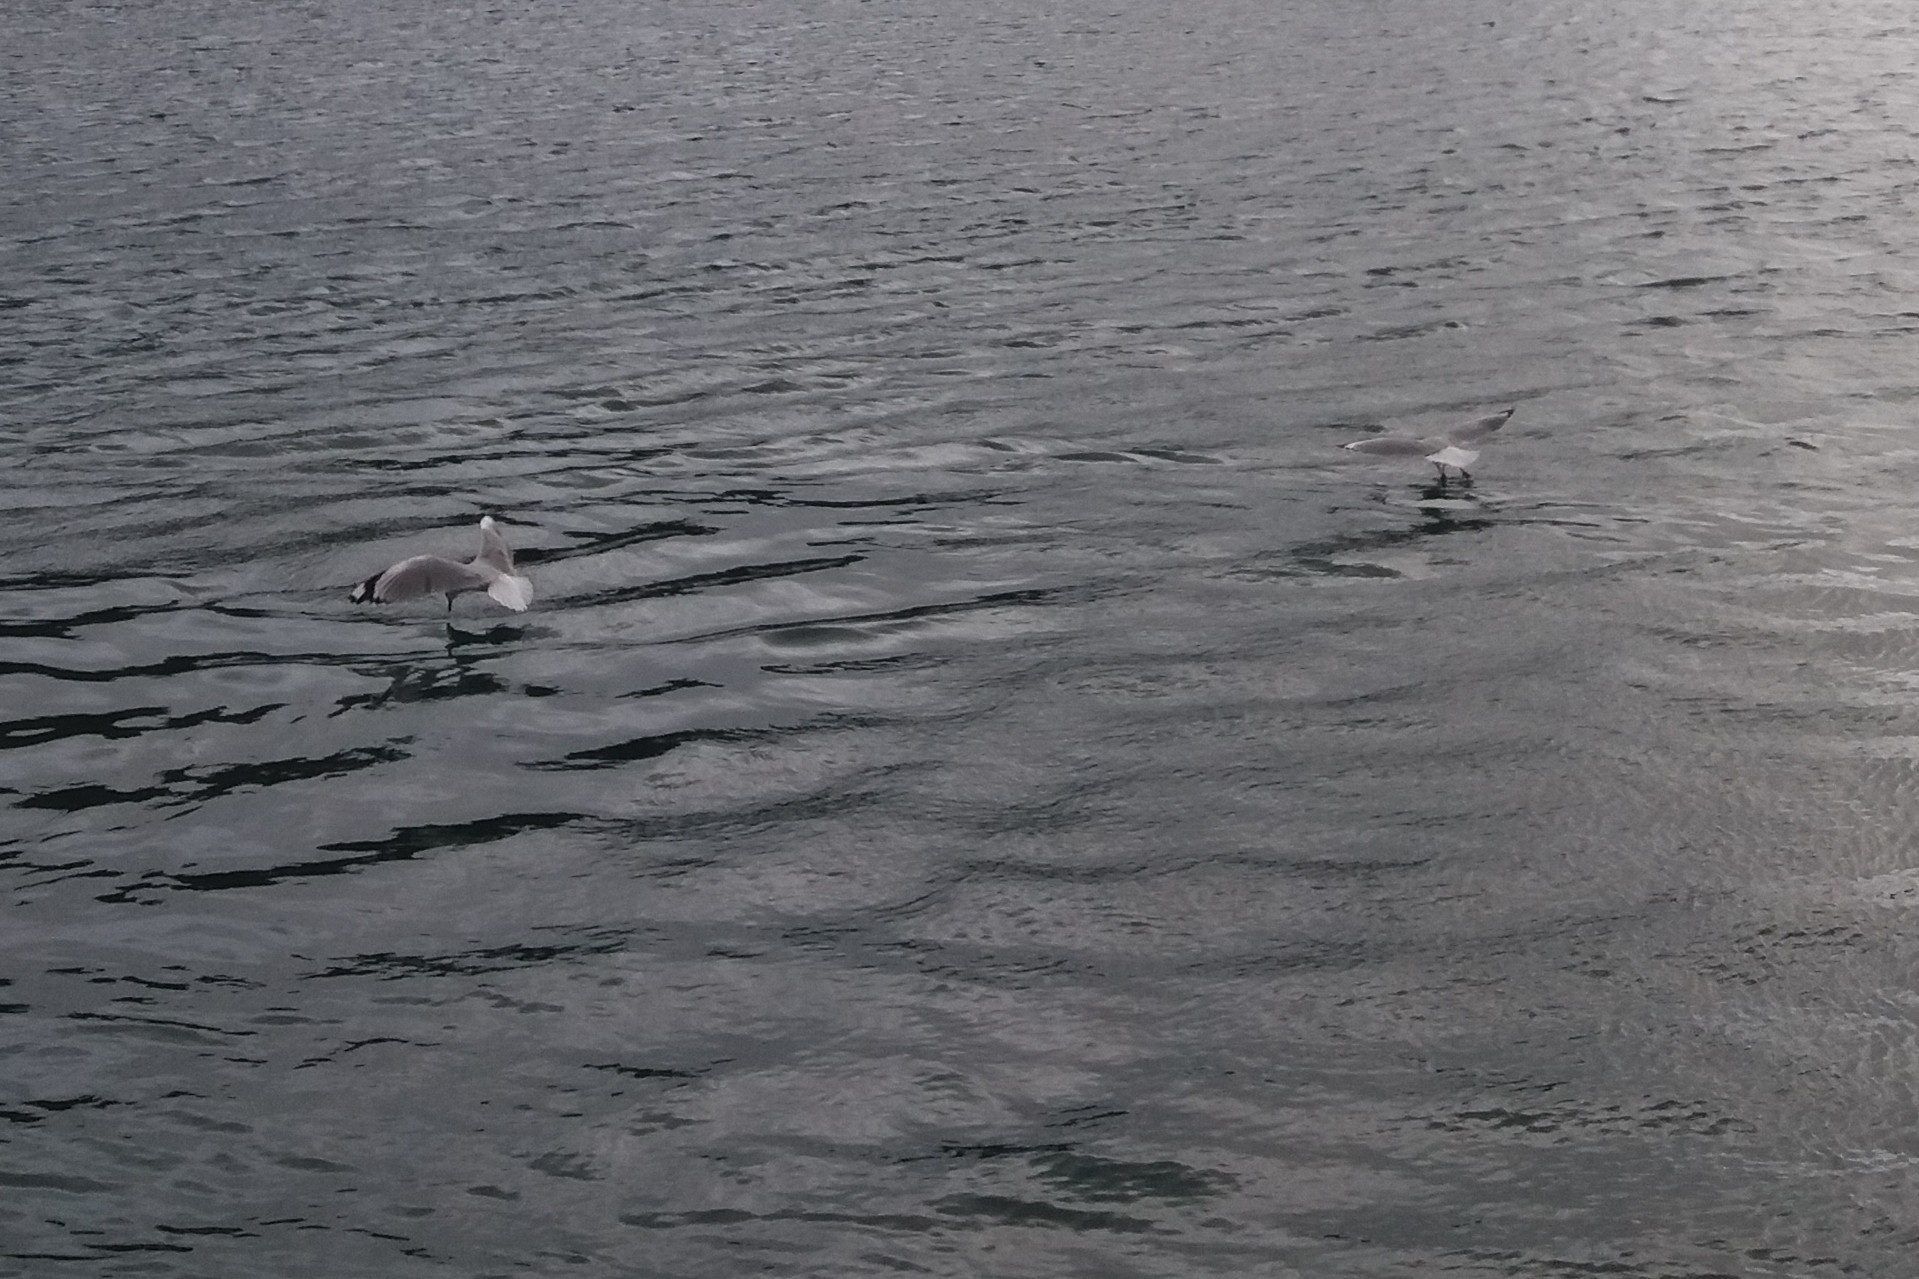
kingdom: Animalia
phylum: Chordata
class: Aves
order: Charadriiformes
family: Laridae
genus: Chroicocephalus
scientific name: Chroicocephalus novaehollandiae
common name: Silver gull
